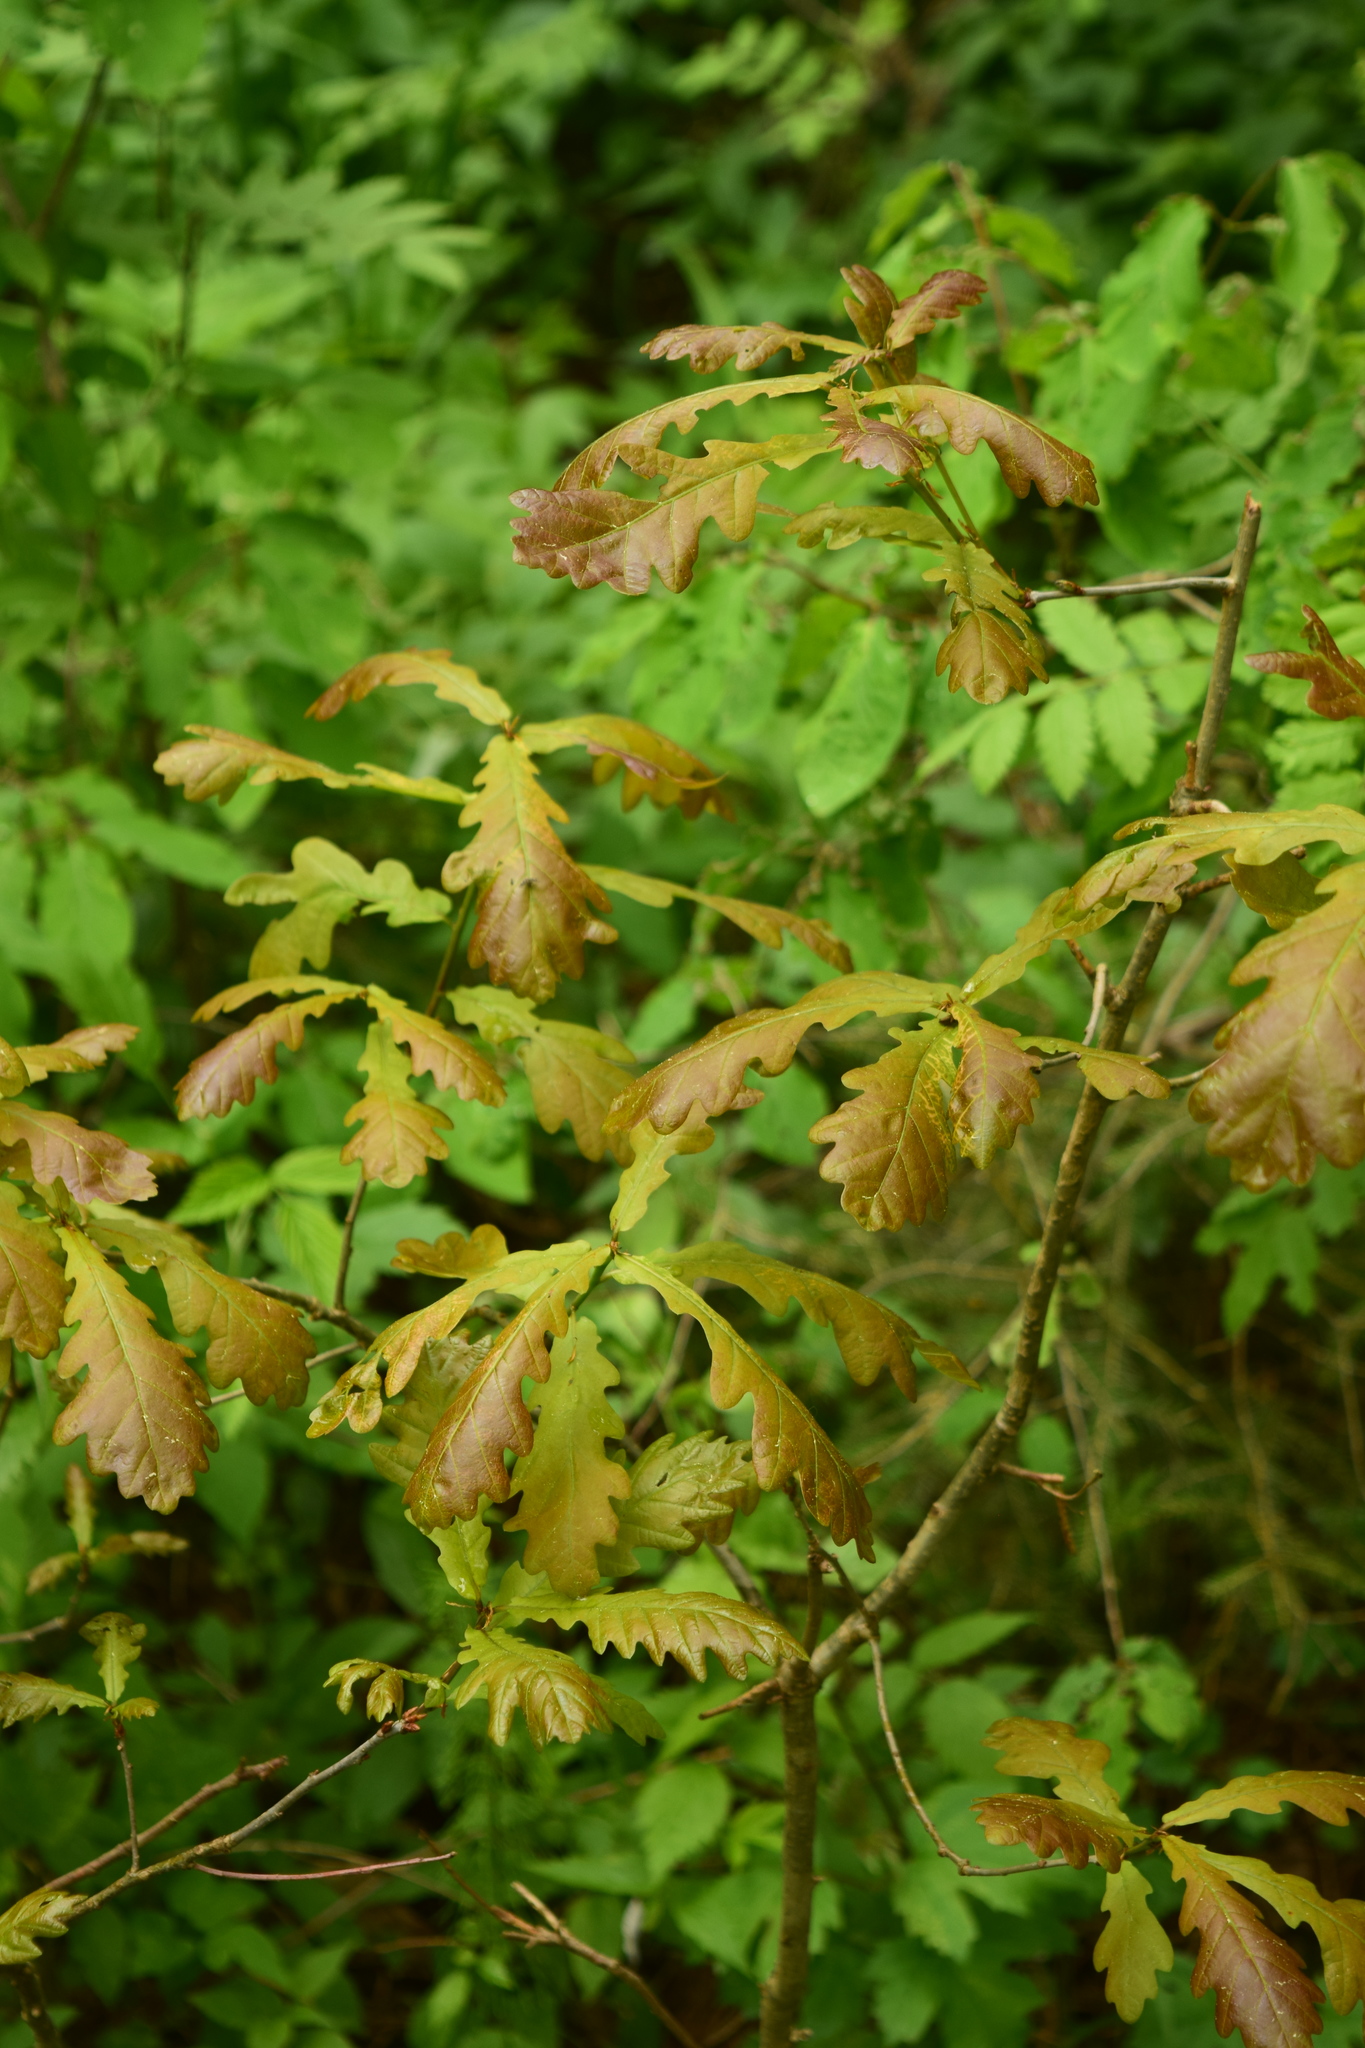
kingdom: Plantae
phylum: Tracheophyta
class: Magnoliopsida
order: Fagales
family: Fagaceae
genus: Quercus
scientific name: Quercus robur
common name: Pedunculate oak
